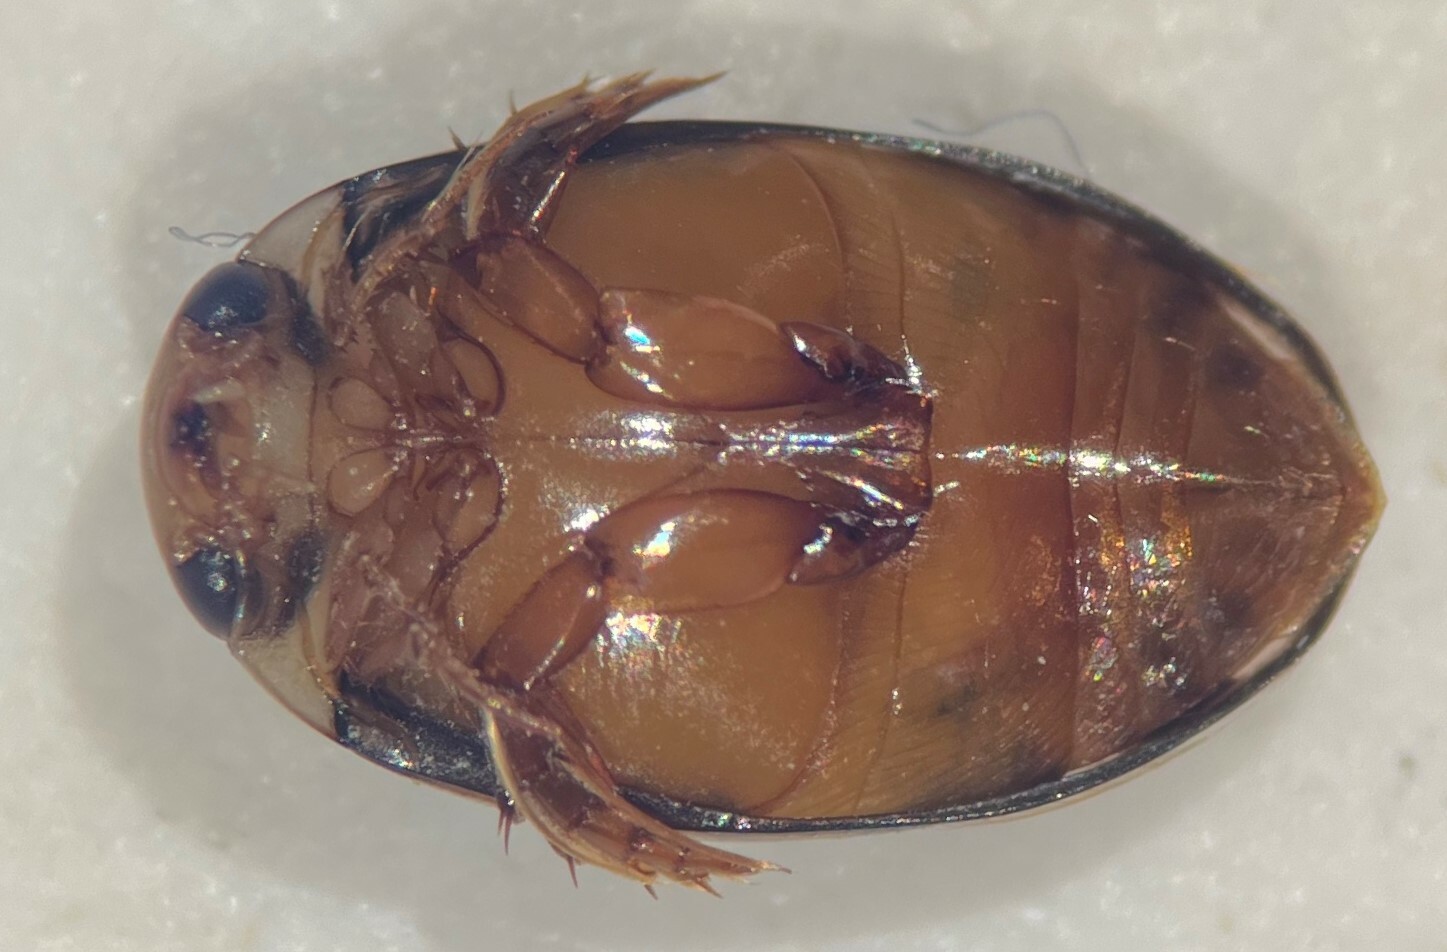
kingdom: Animalia
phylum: Arthropoda
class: Insecta
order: Coleoptera
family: Dytiscidae
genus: Laccophilus
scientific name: Laccophilus pictus
